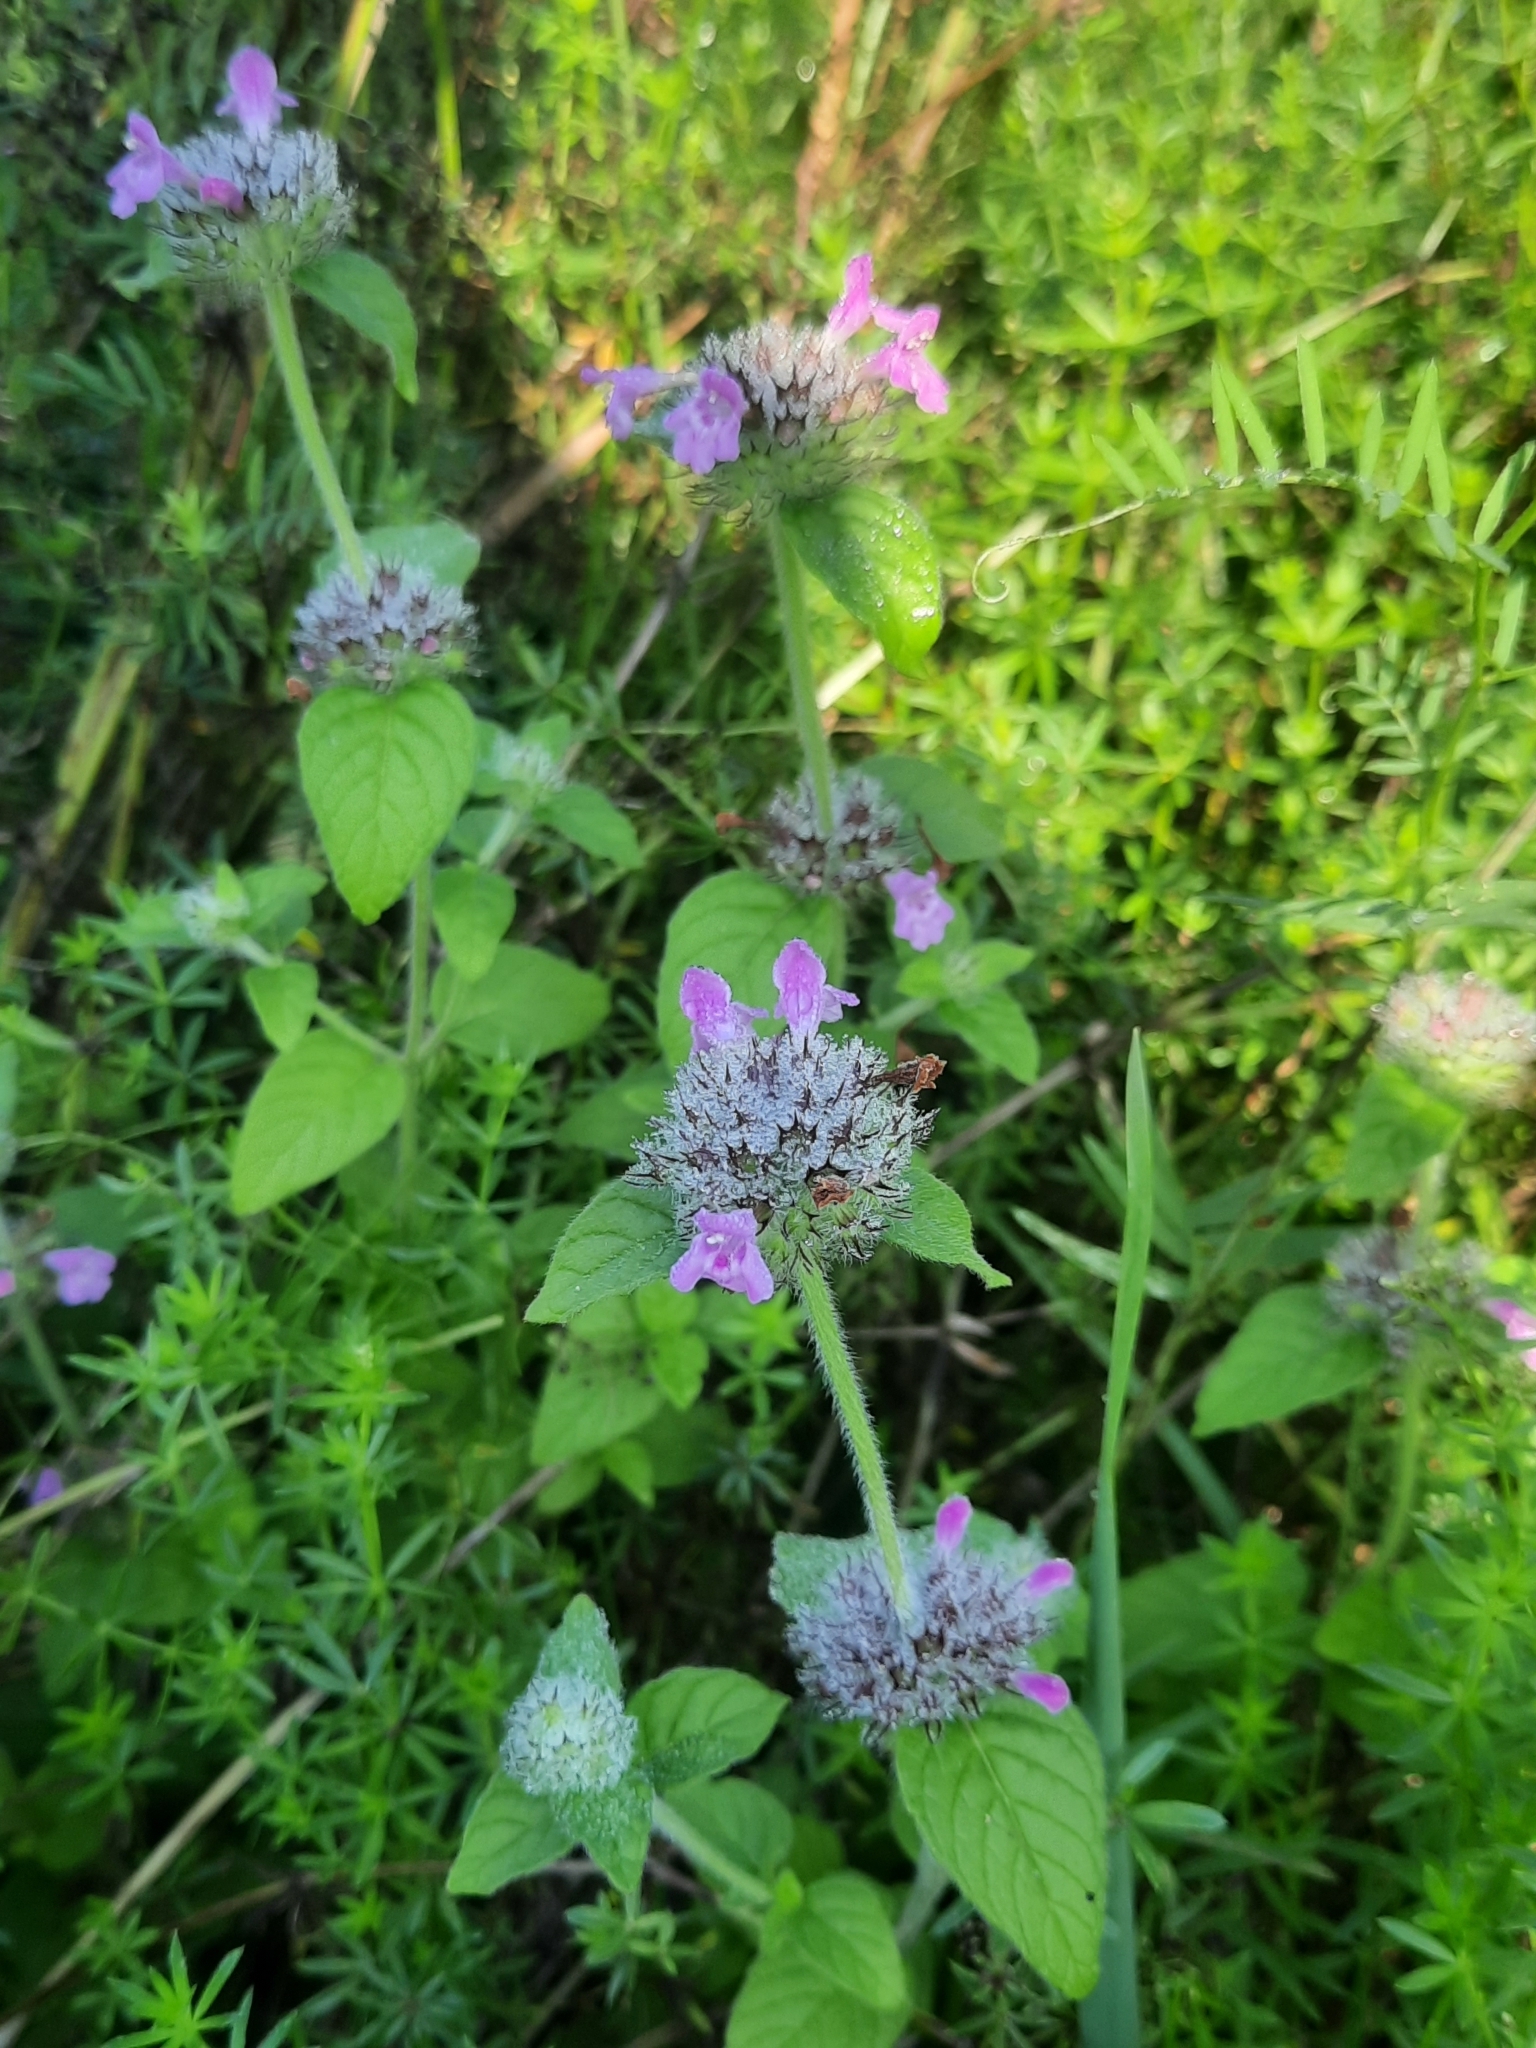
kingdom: Plantae
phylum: Tracheophyta
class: Magnoliopsida
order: Lamiales
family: Lamiaceae
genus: Clinopodium
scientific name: Clinopodium vulgare
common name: Wild basil
